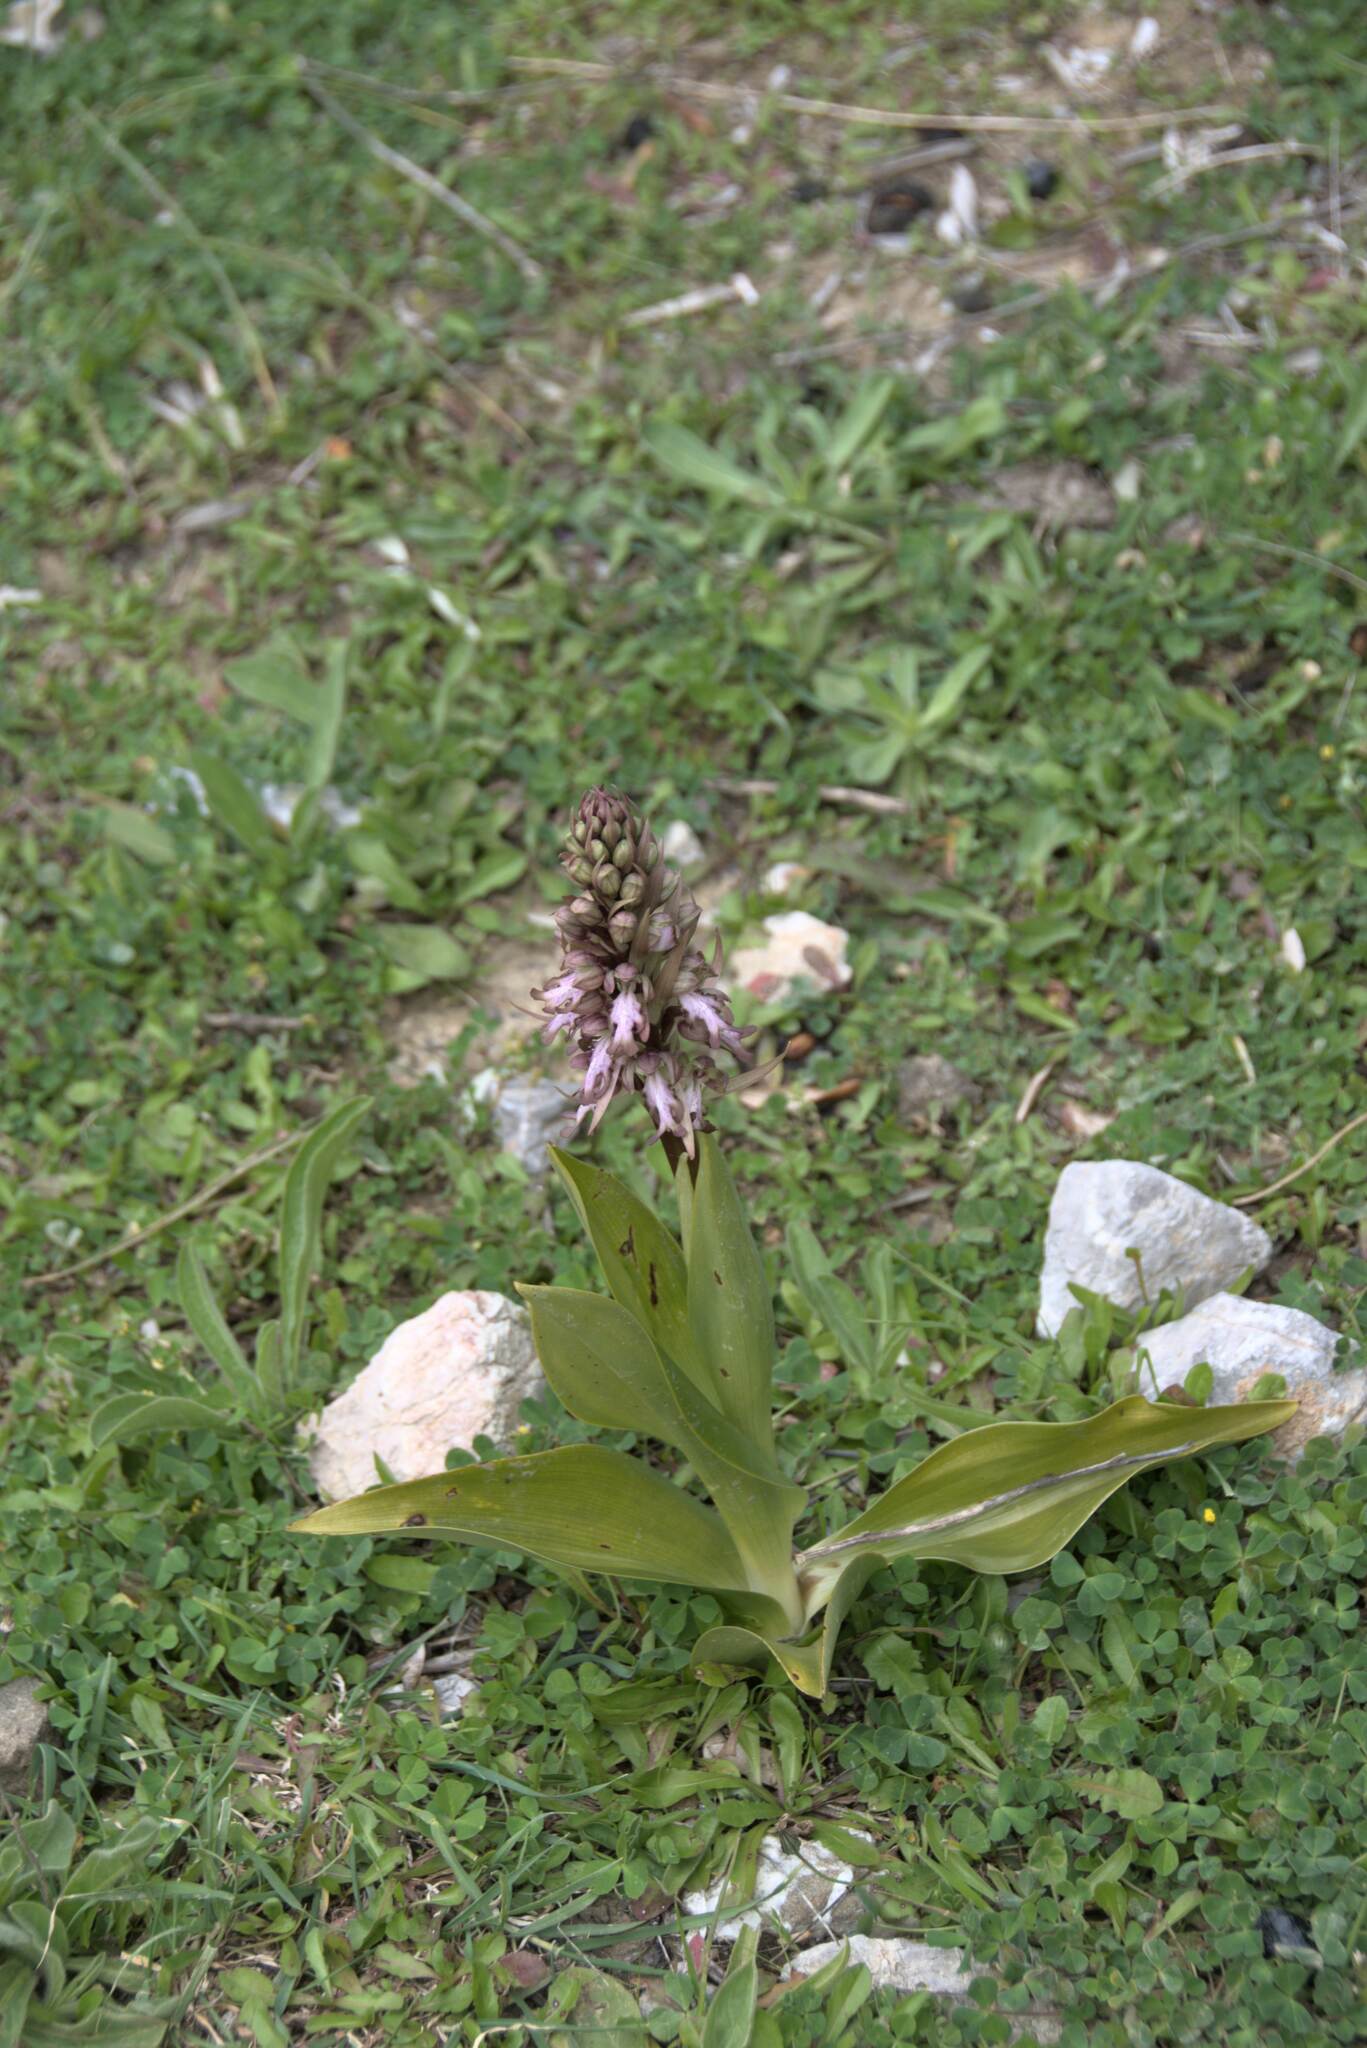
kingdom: Plantae
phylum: Tracheophyta
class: Liliopsida
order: Asparagales
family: Orchidaceae
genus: Himantoglossum
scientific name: Himantoglossum robertianum
